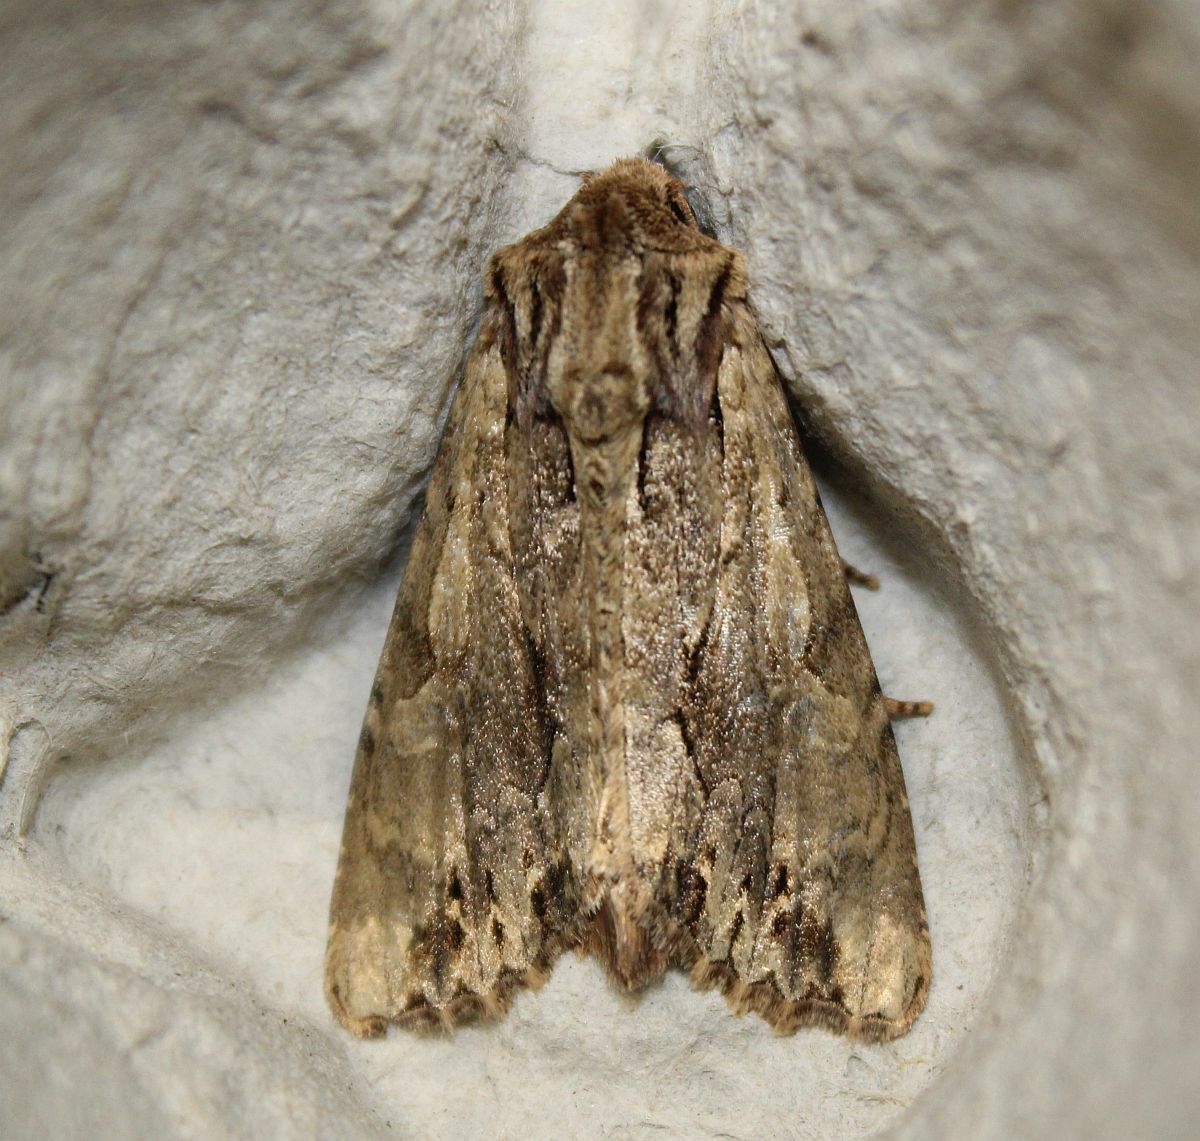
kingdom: Animalia
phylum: Arthropoda
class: Insecta
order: Lepidoptera
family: Noctuidae
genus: Apamea
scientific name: Apamea monoglypha
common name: Dark arches
